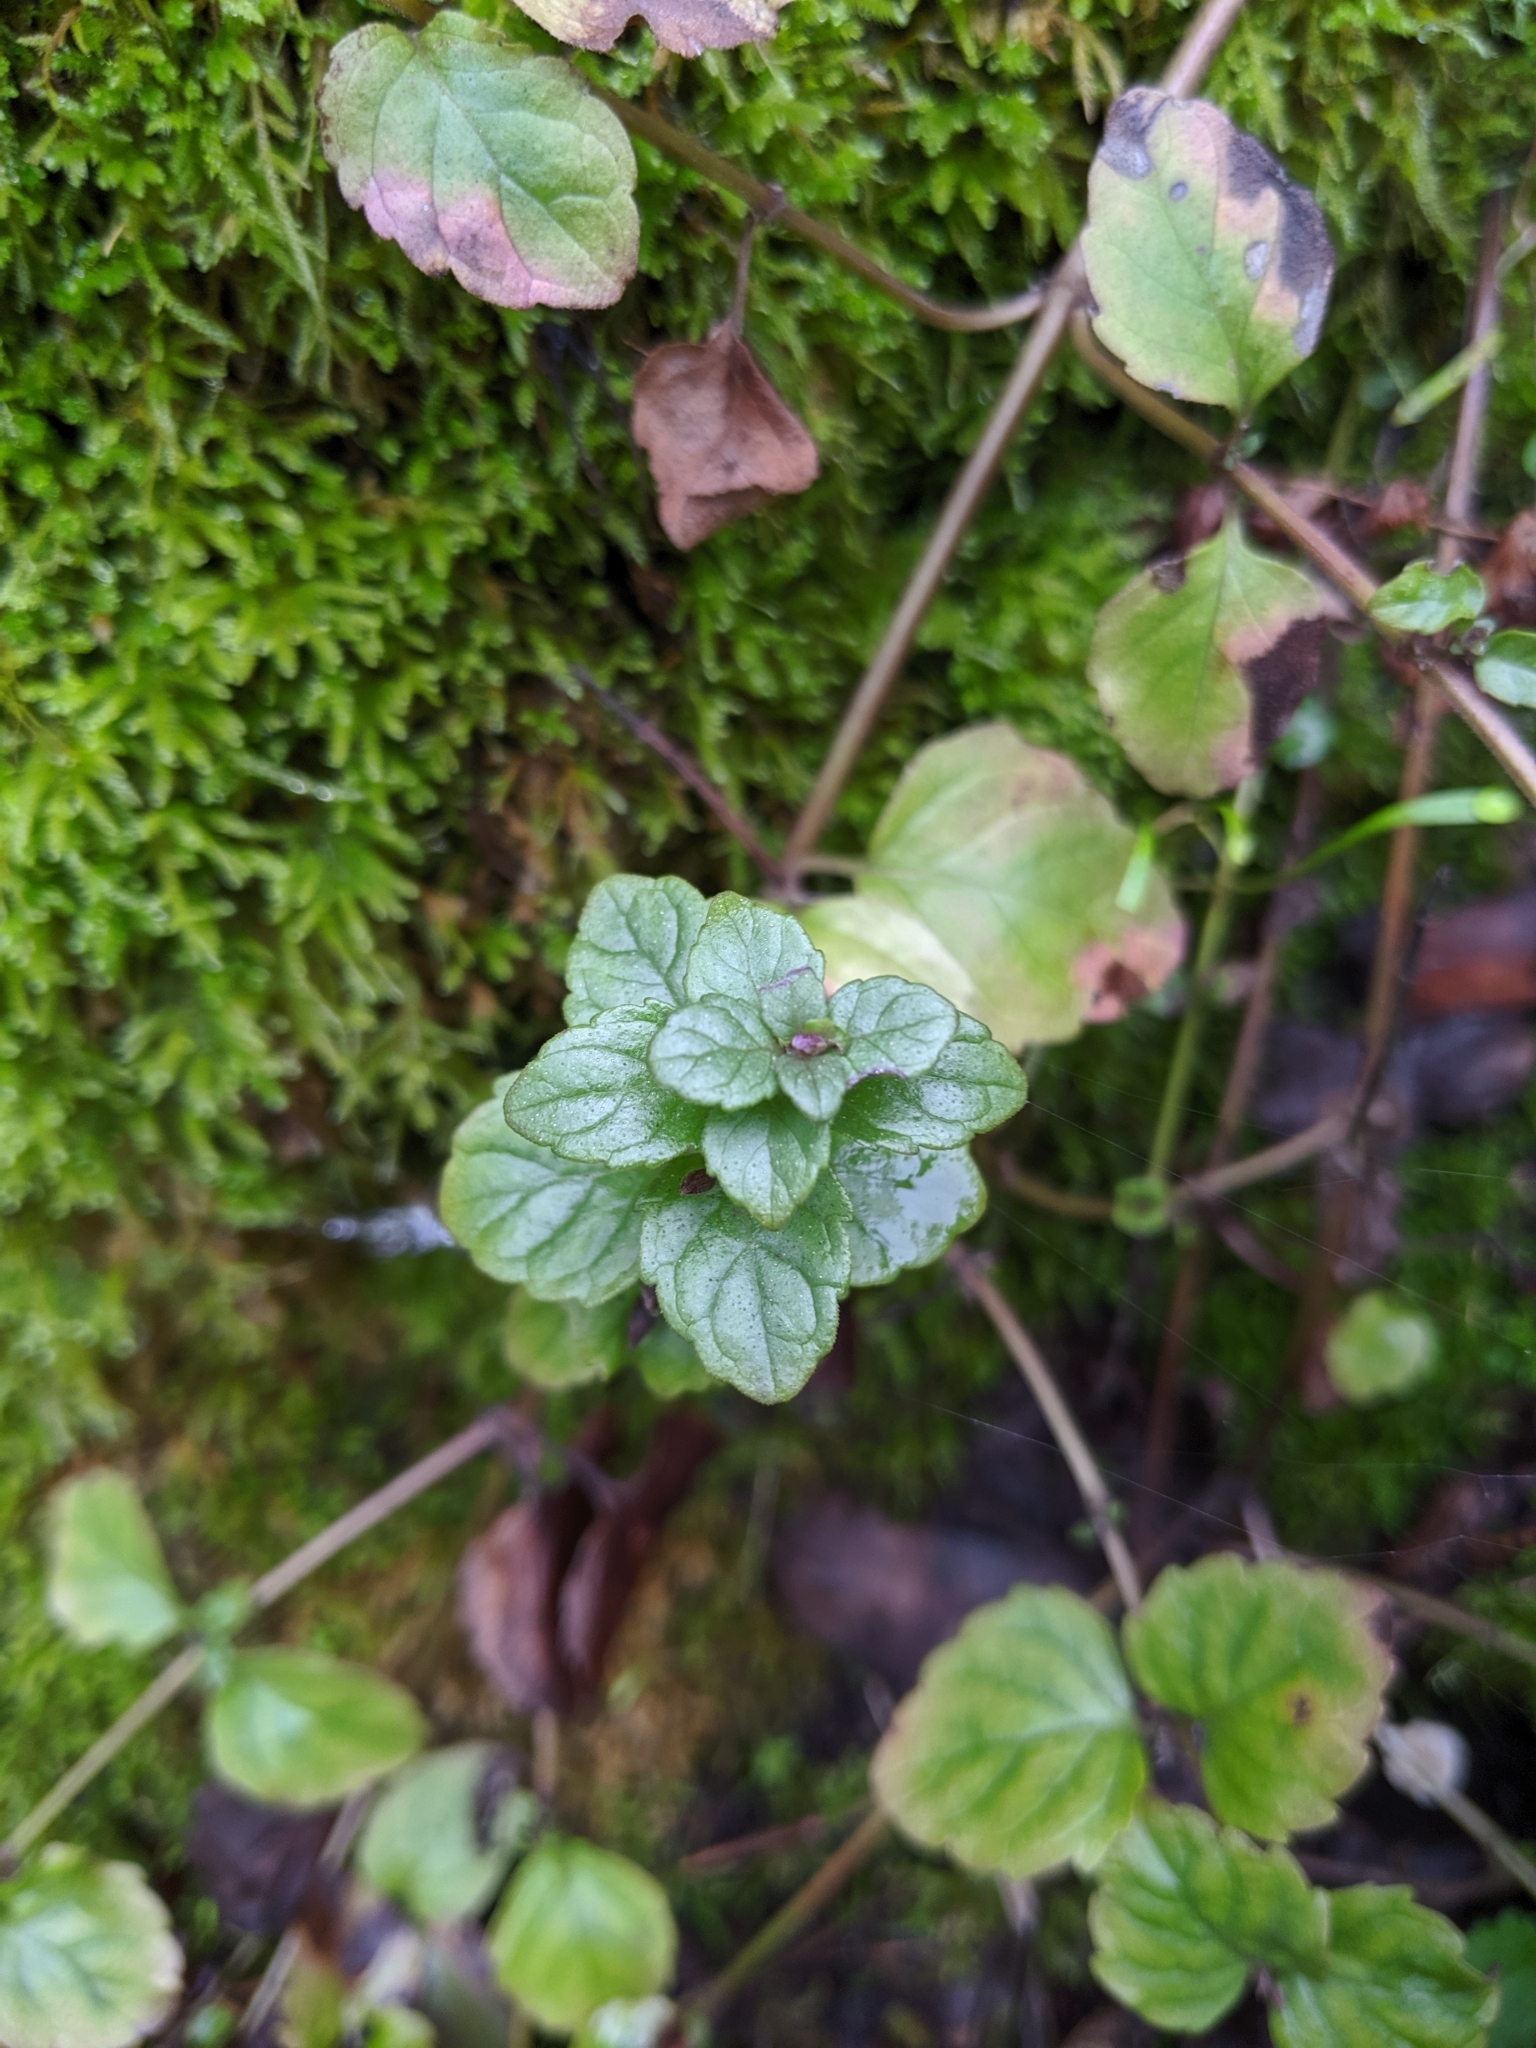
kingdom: Plantae
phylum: Tracheophyta
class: Magnoliopsida
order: Lamiales
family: Lamiaceae
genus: Micromeria
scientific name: Micromeria douglasii
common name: Yerba buena
